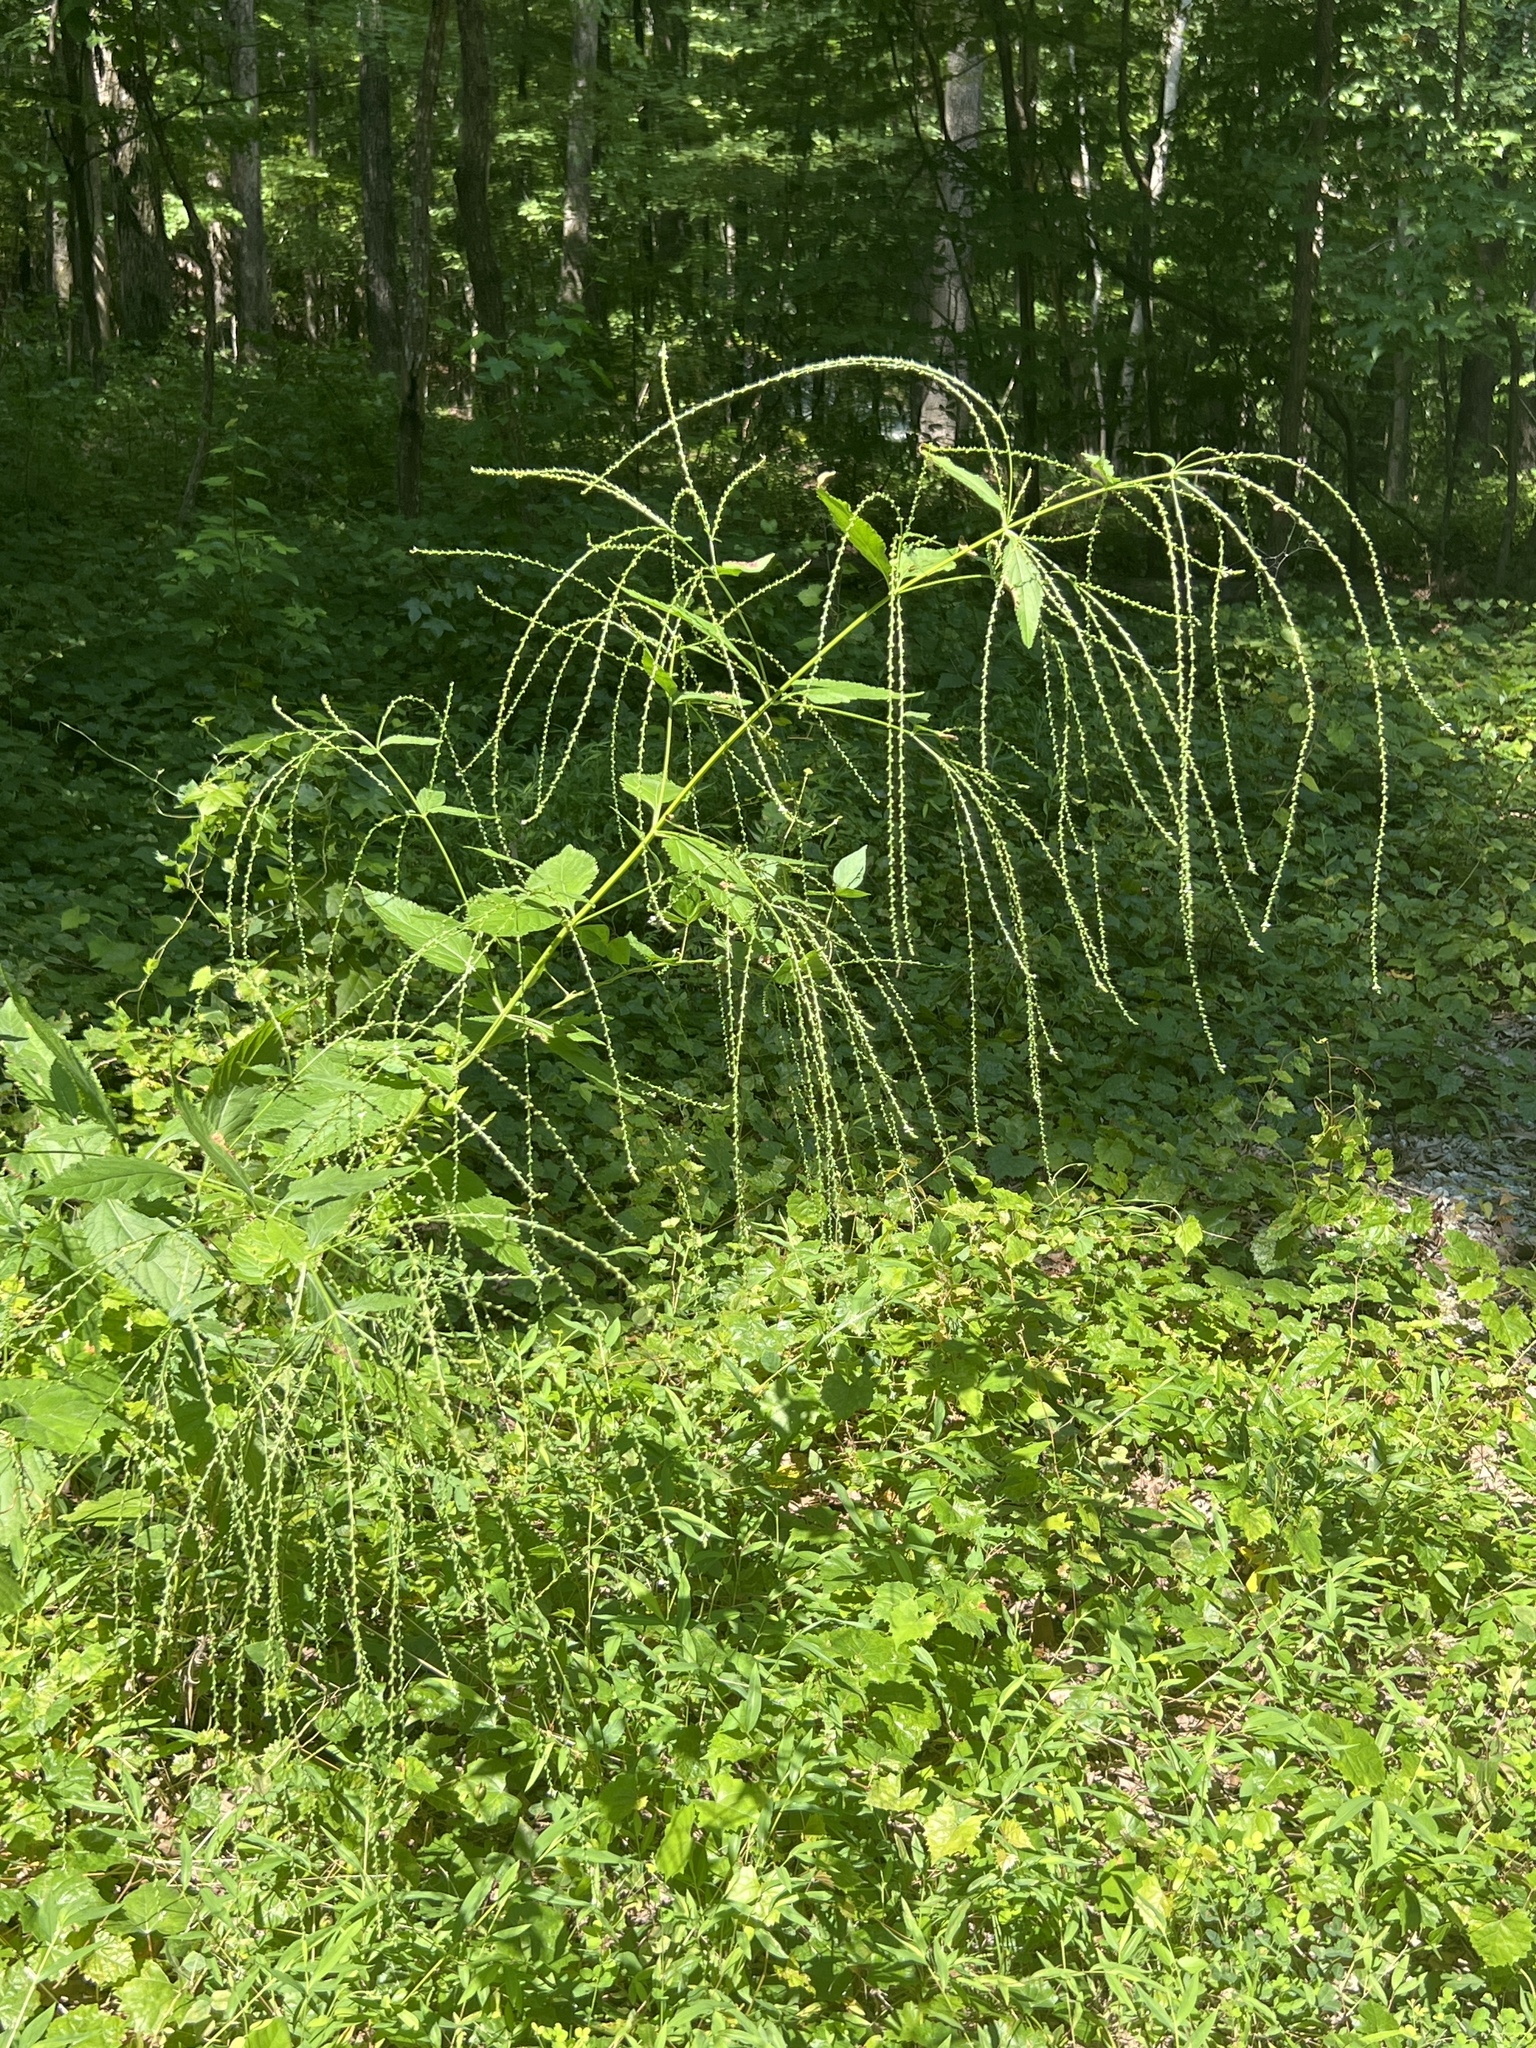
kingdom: Plantae
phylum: Tracheophyta
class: Magnoliopsida
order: Lamiales
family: Verbenaceae
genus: Verbena
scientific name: Verbena urticifolia
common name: Nettle-leaved vervain
